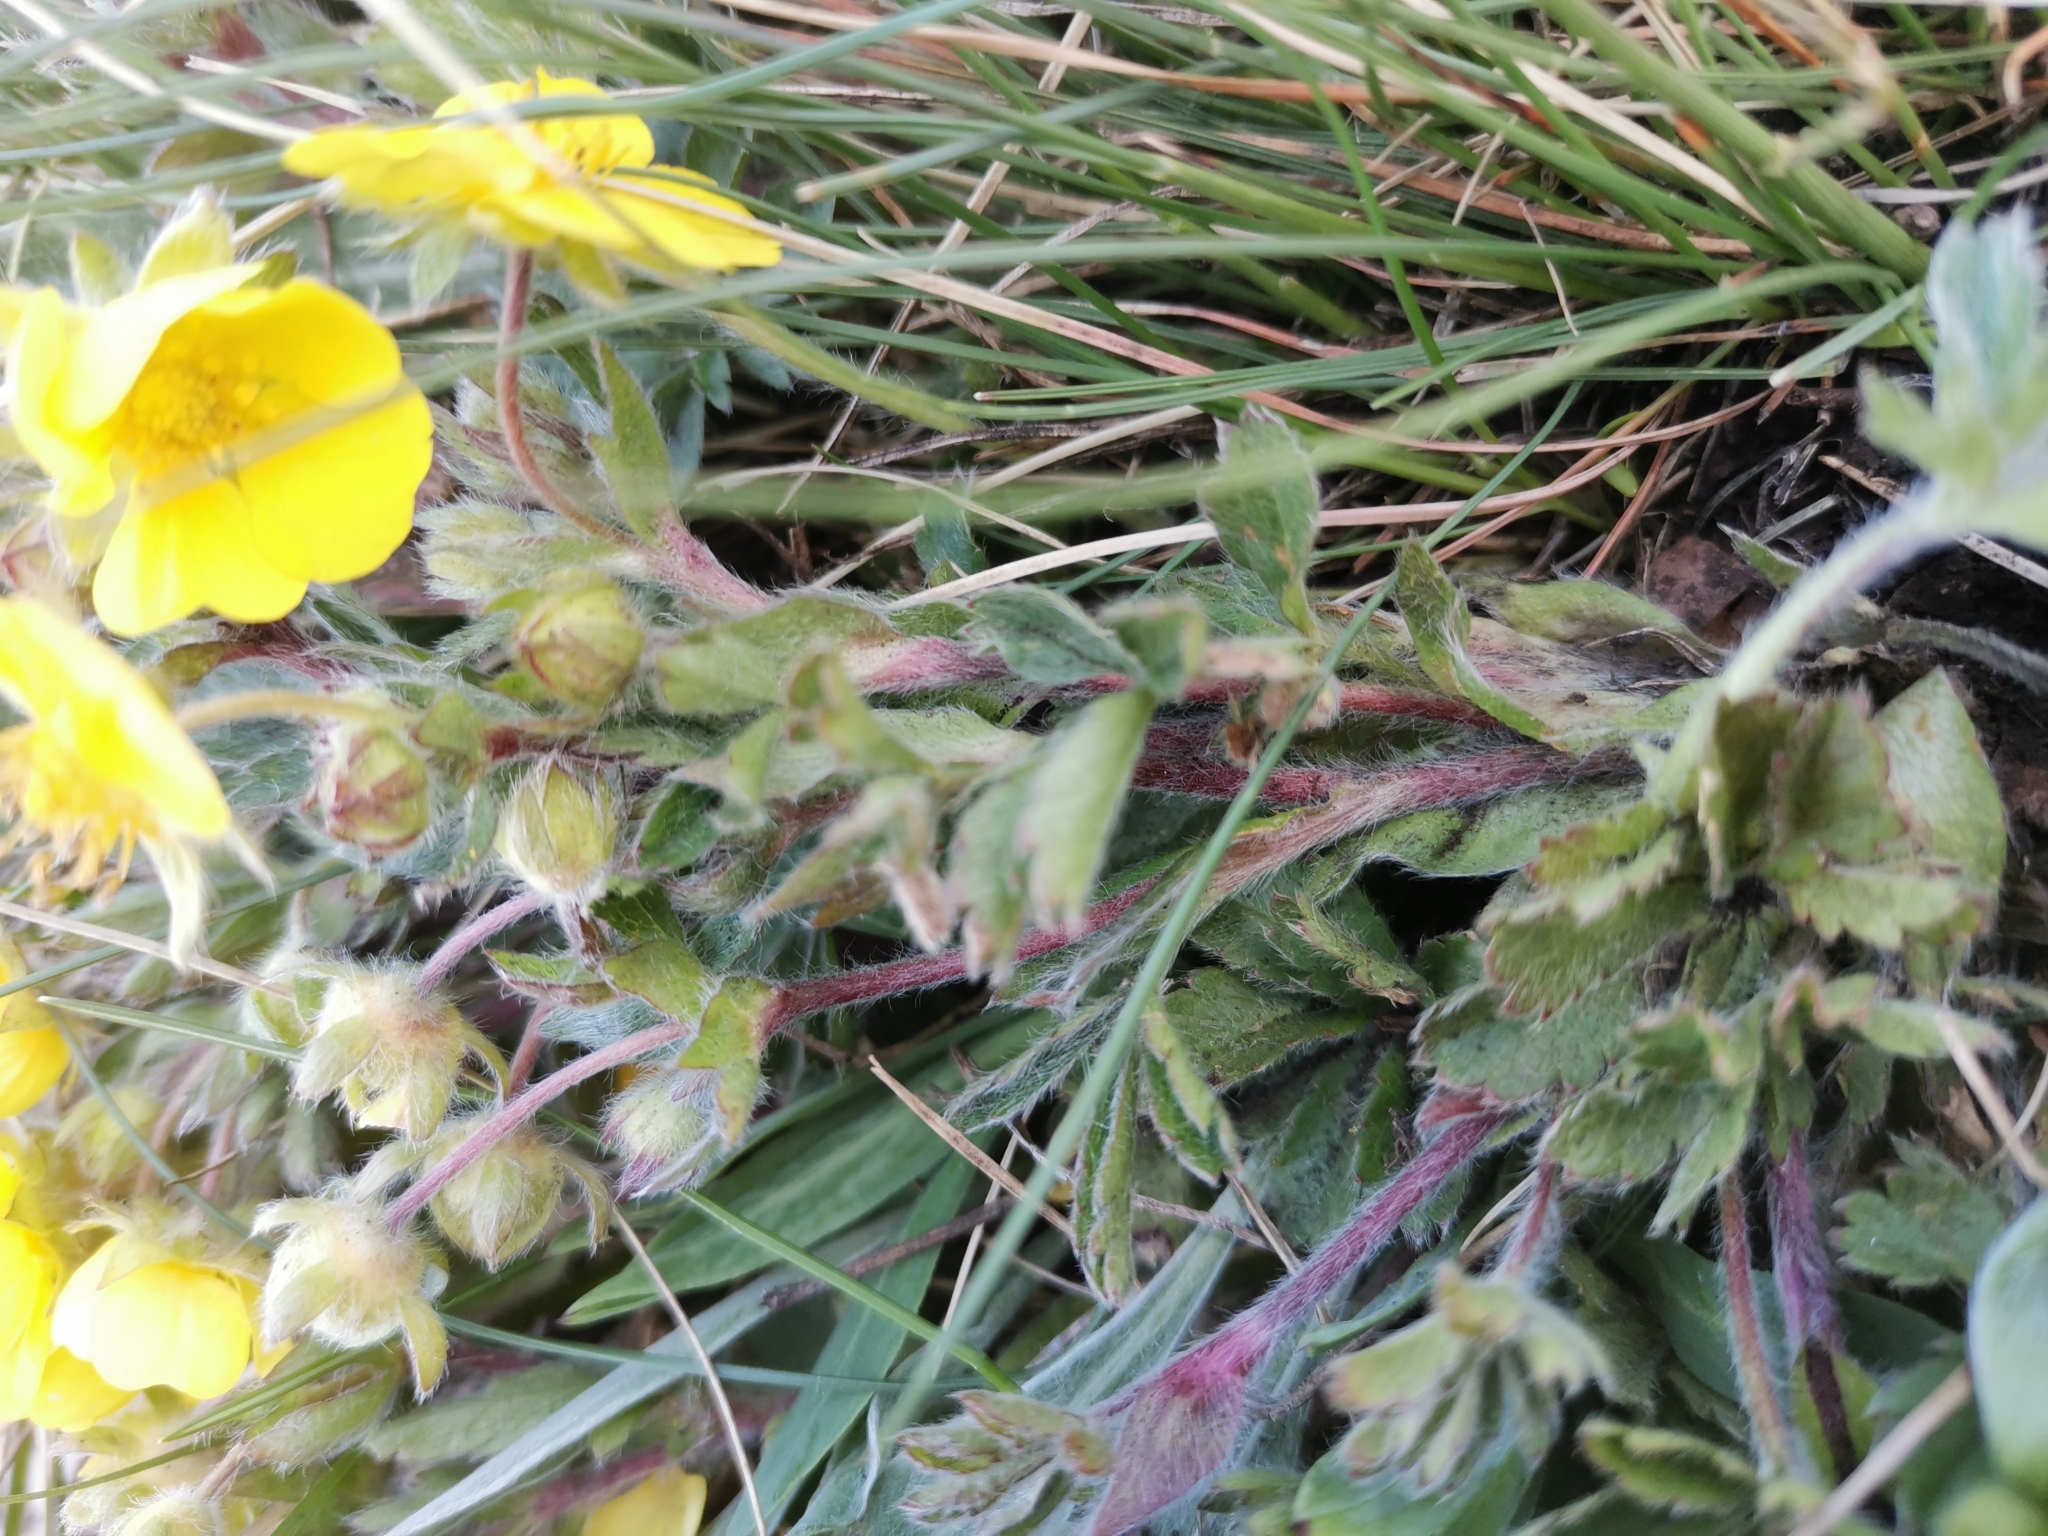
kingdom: Plantae
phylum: Tracheophyta
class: Magnoliopsida
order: Rosales
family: Rosaceae
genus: Potentilla
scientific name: Potentilla pusilla
